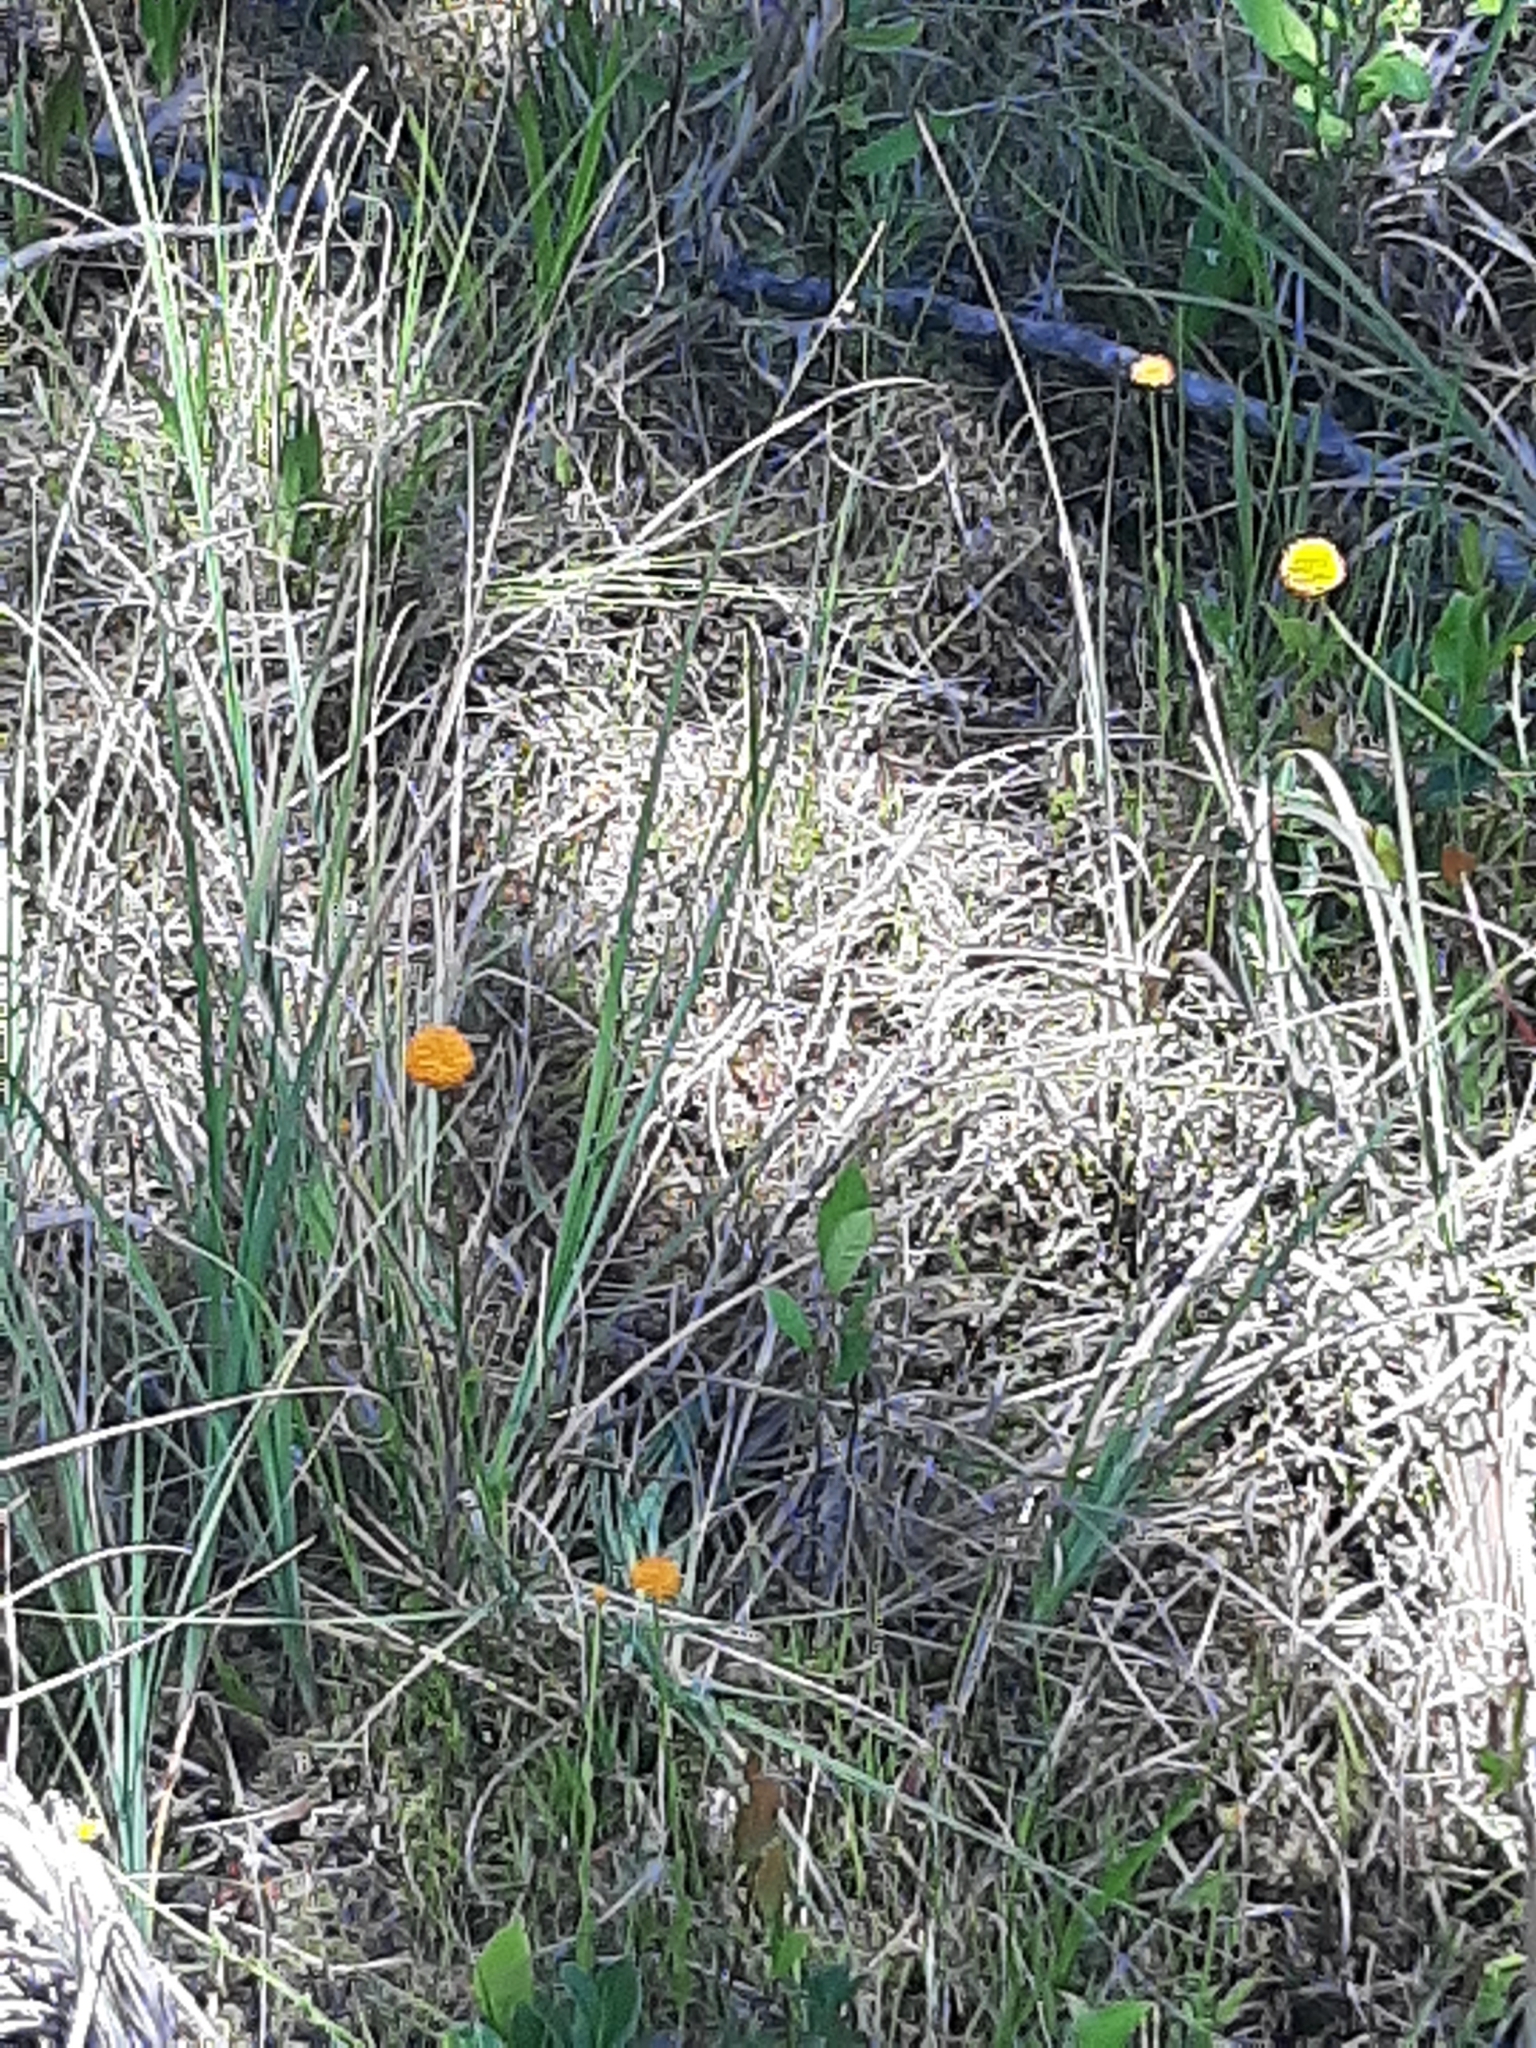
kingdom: Plantae
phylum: Tracheophyta
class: Magnoliopsida
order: Fabales
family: Polygalaceae
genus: Polygala
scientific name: Polygala lutea
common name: Orange milkwort
